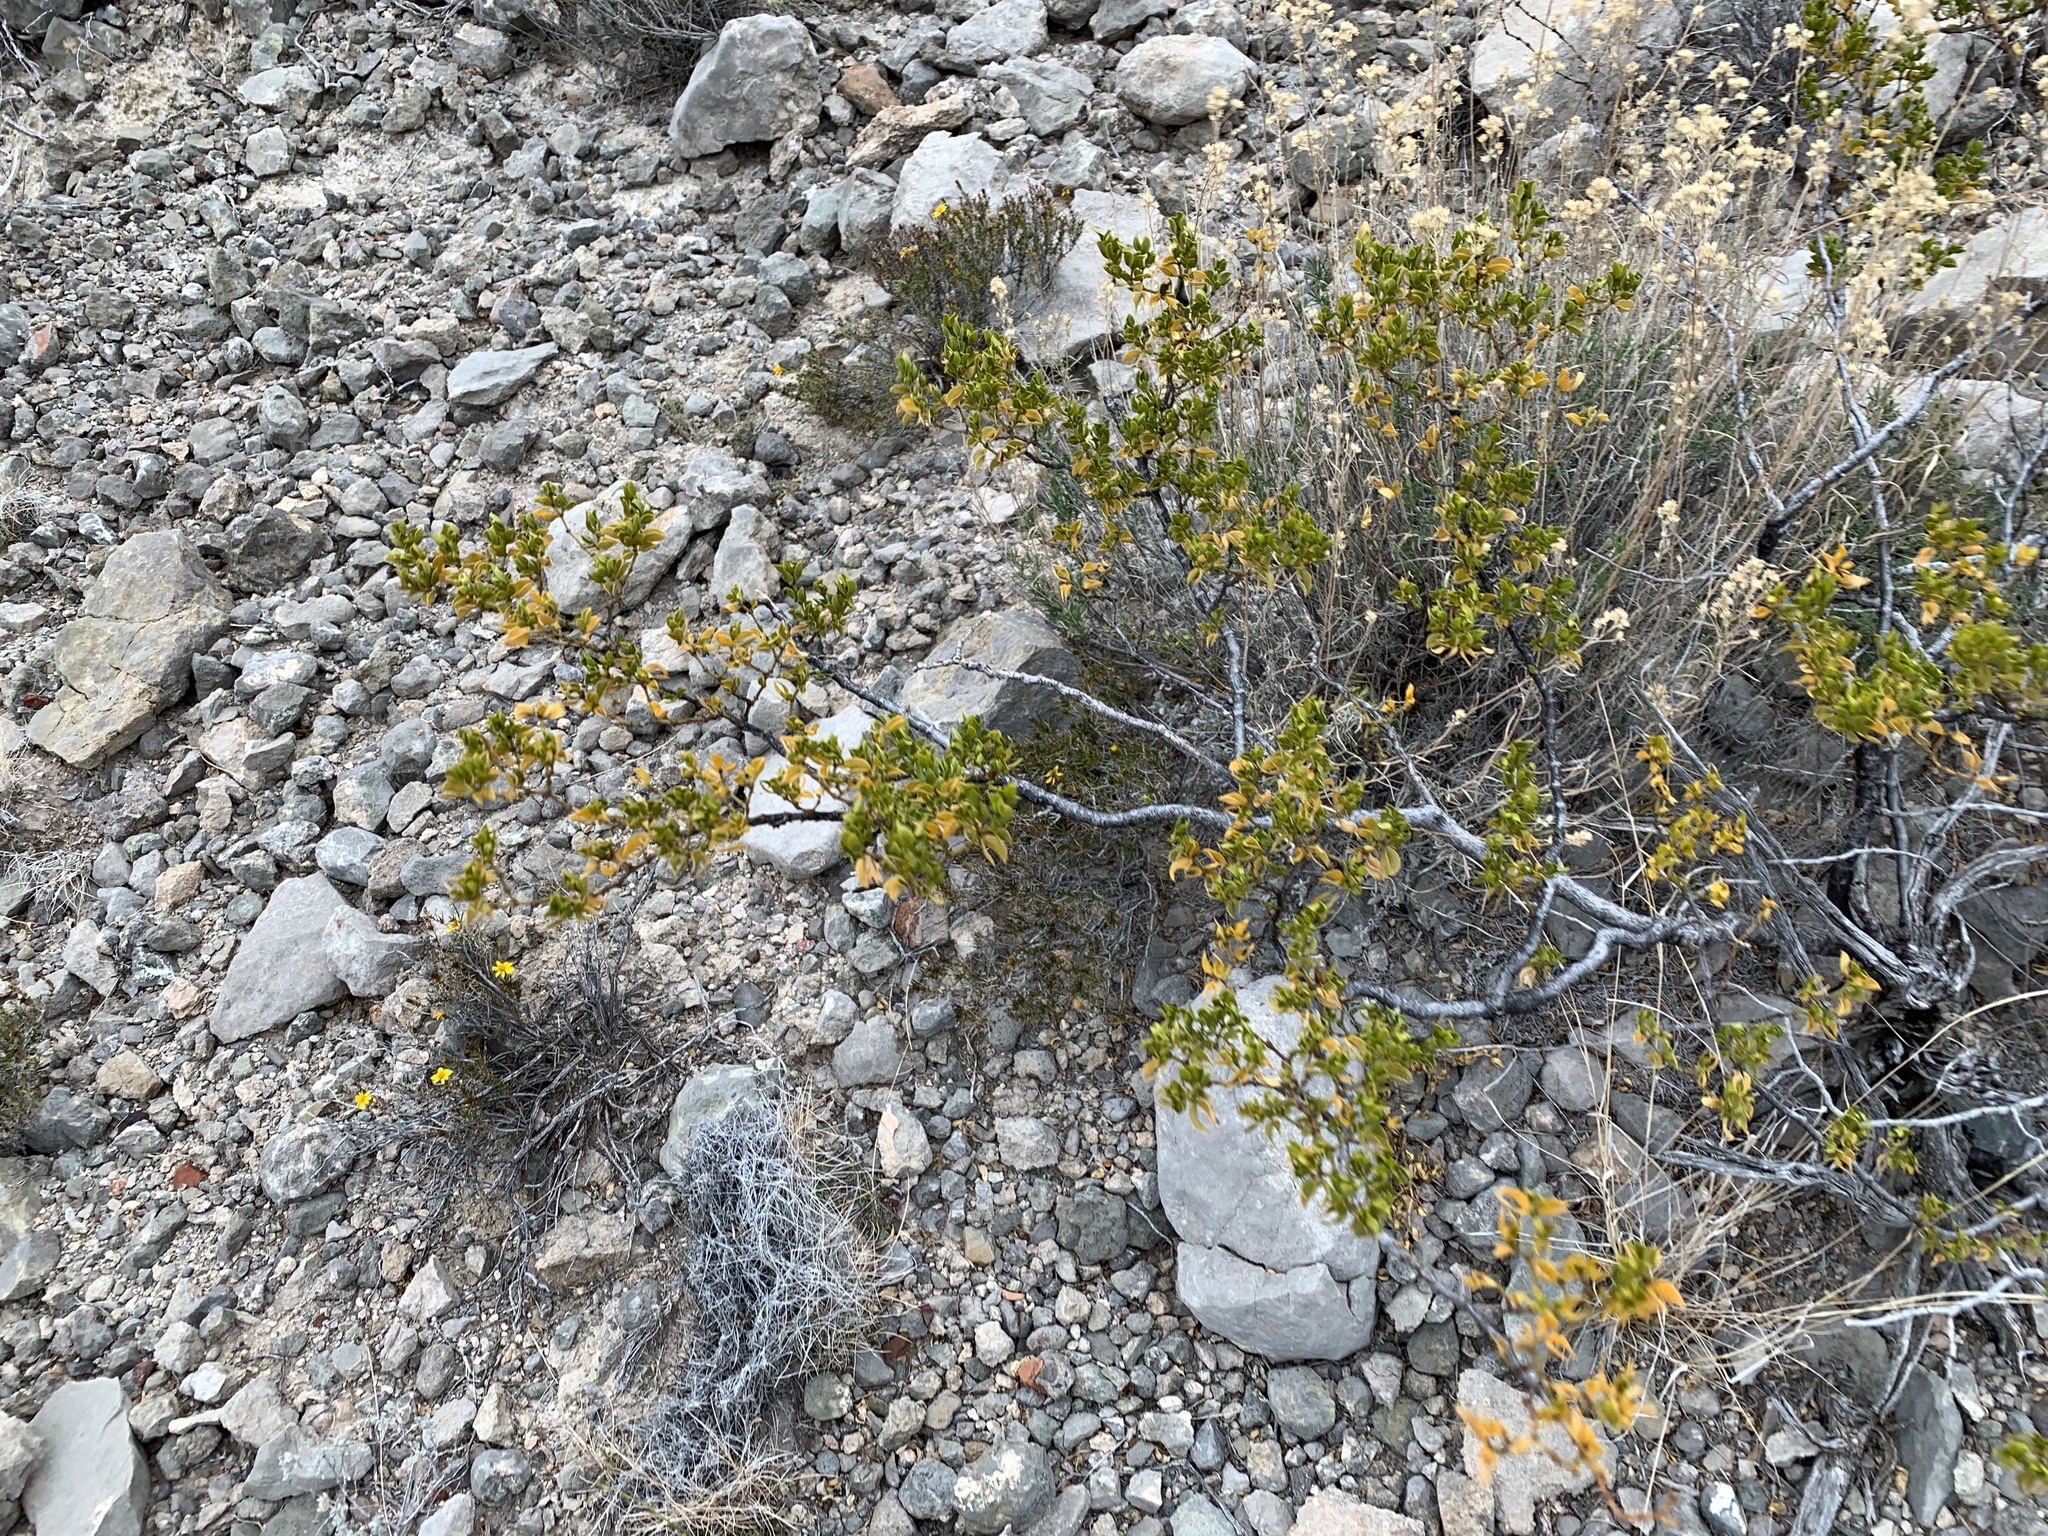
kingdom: Plantae
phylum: Tracheophyta
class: Magnoliopsida
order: Zygophyllales
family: Zygophyllaceae
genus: Larrea
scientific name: Larrea tridentata
